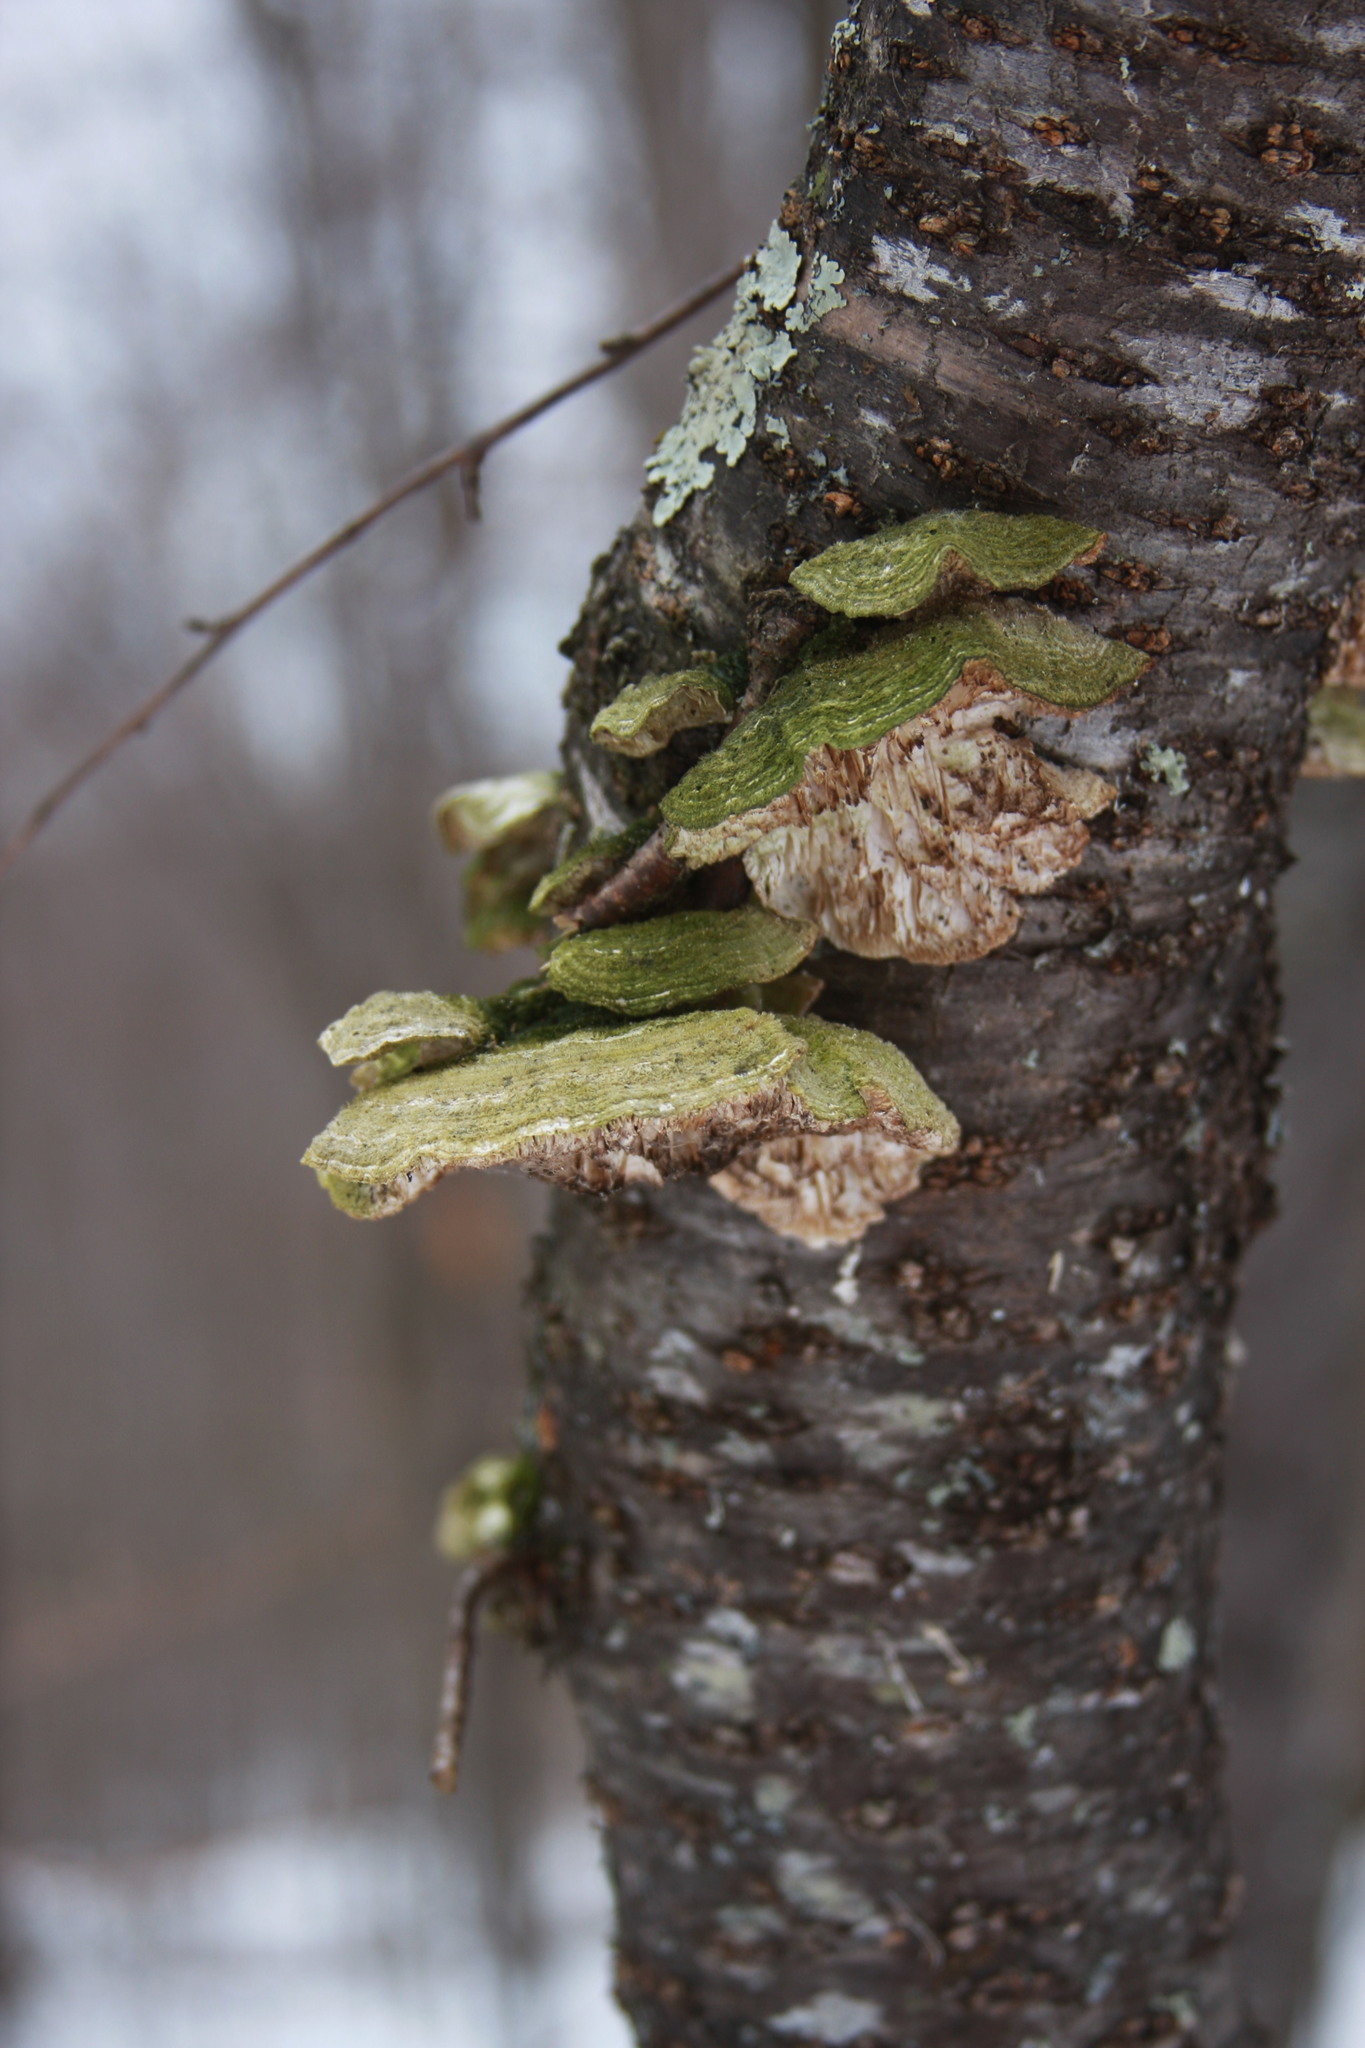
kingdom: Fungi
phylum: Basidiomycota
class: Agaricomycetes
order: Polyporales
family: Polyporaceae
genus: Lenzites
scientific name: Lenzites betulinus
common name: Birch mazegill
